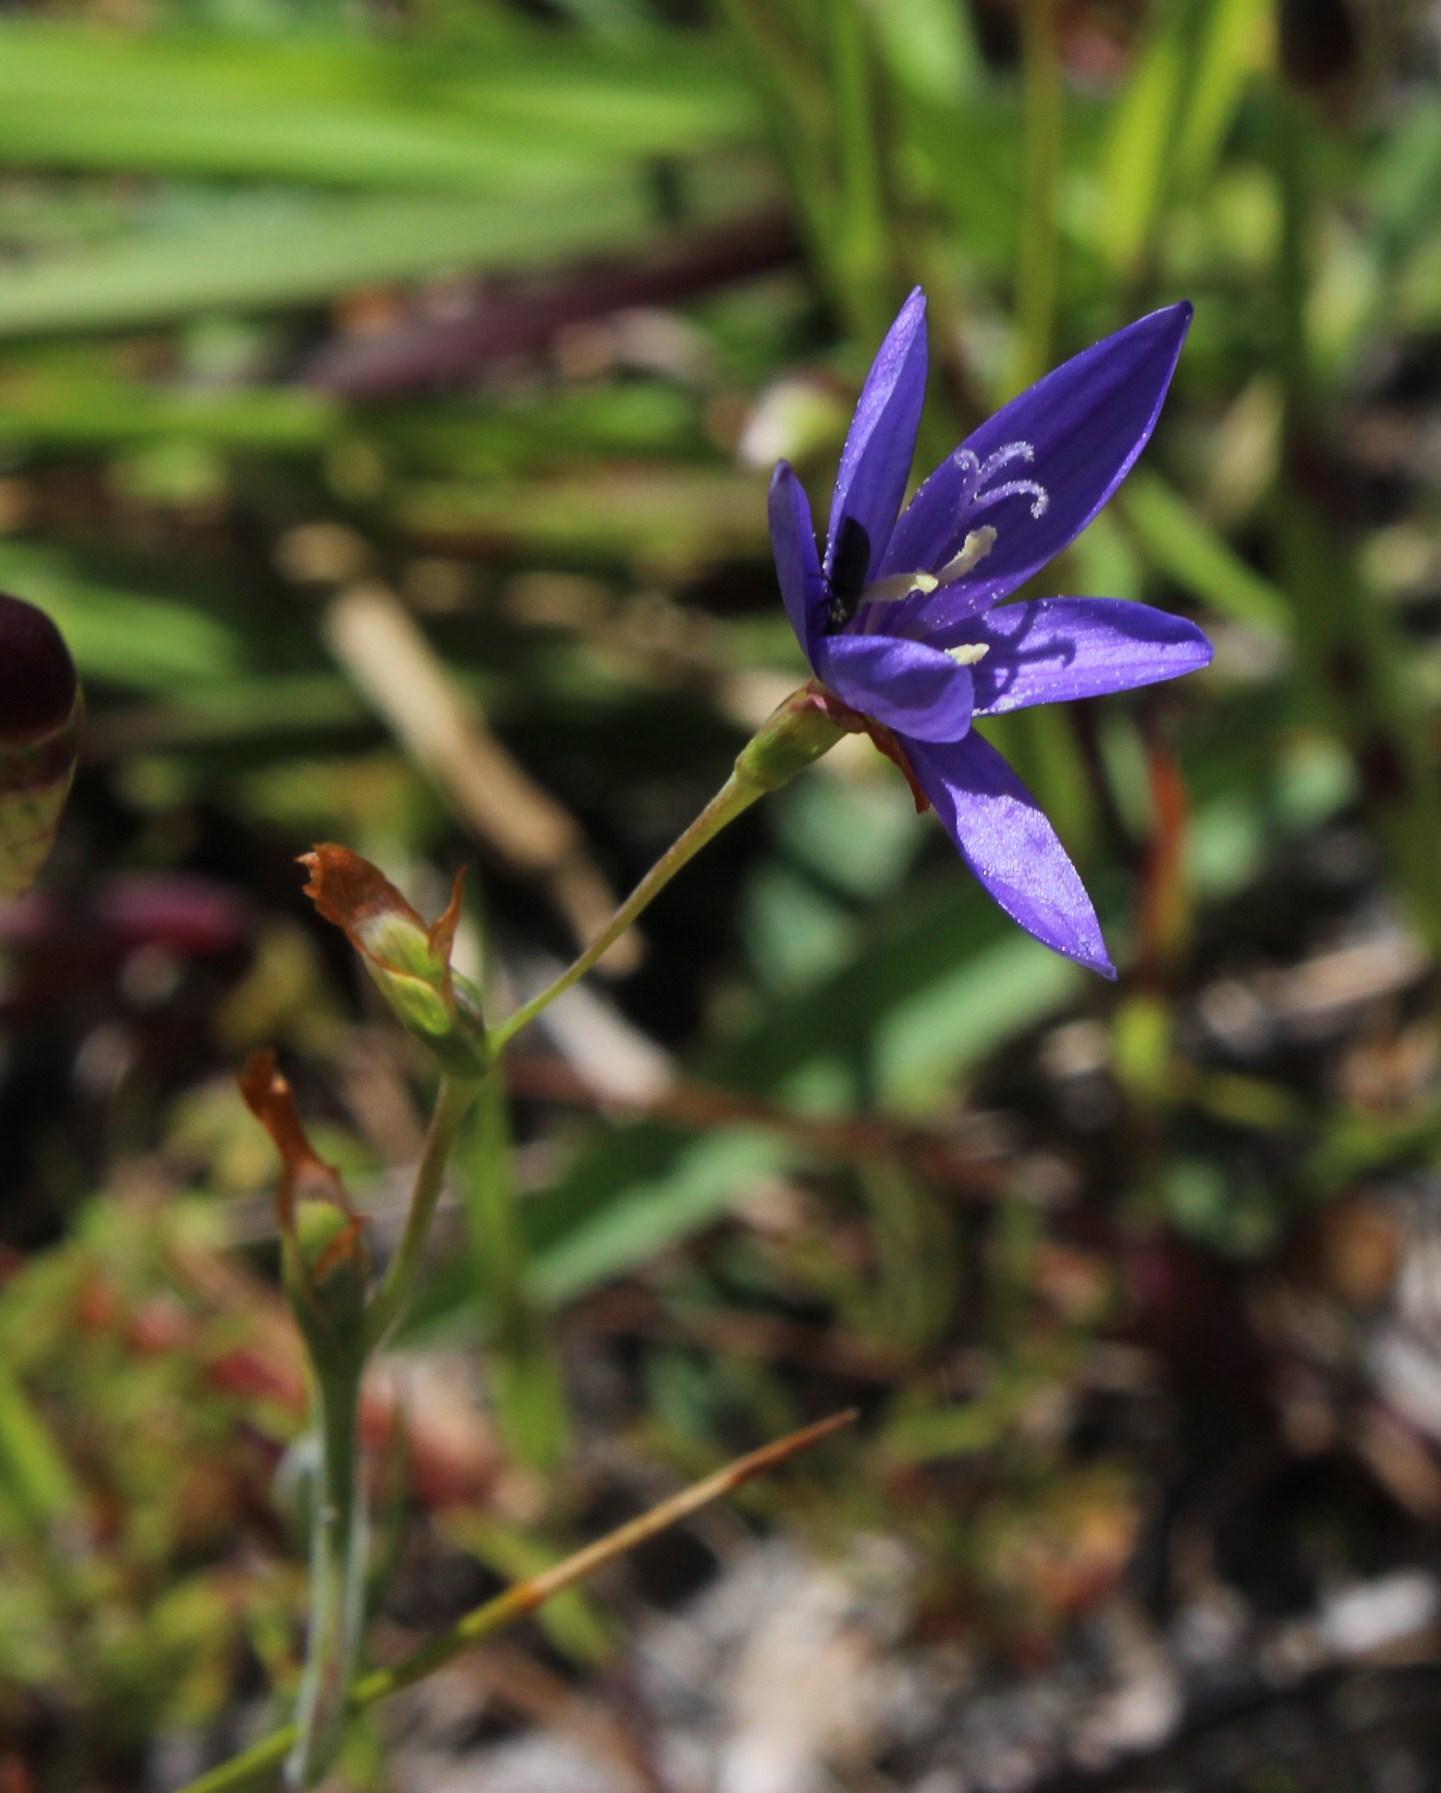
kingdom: Plantae
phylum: Tracheophyta
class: Liliopsida
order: Asparagales
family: Iridaceae
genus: Geissorhiza
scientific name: Geissorhiza aspera
